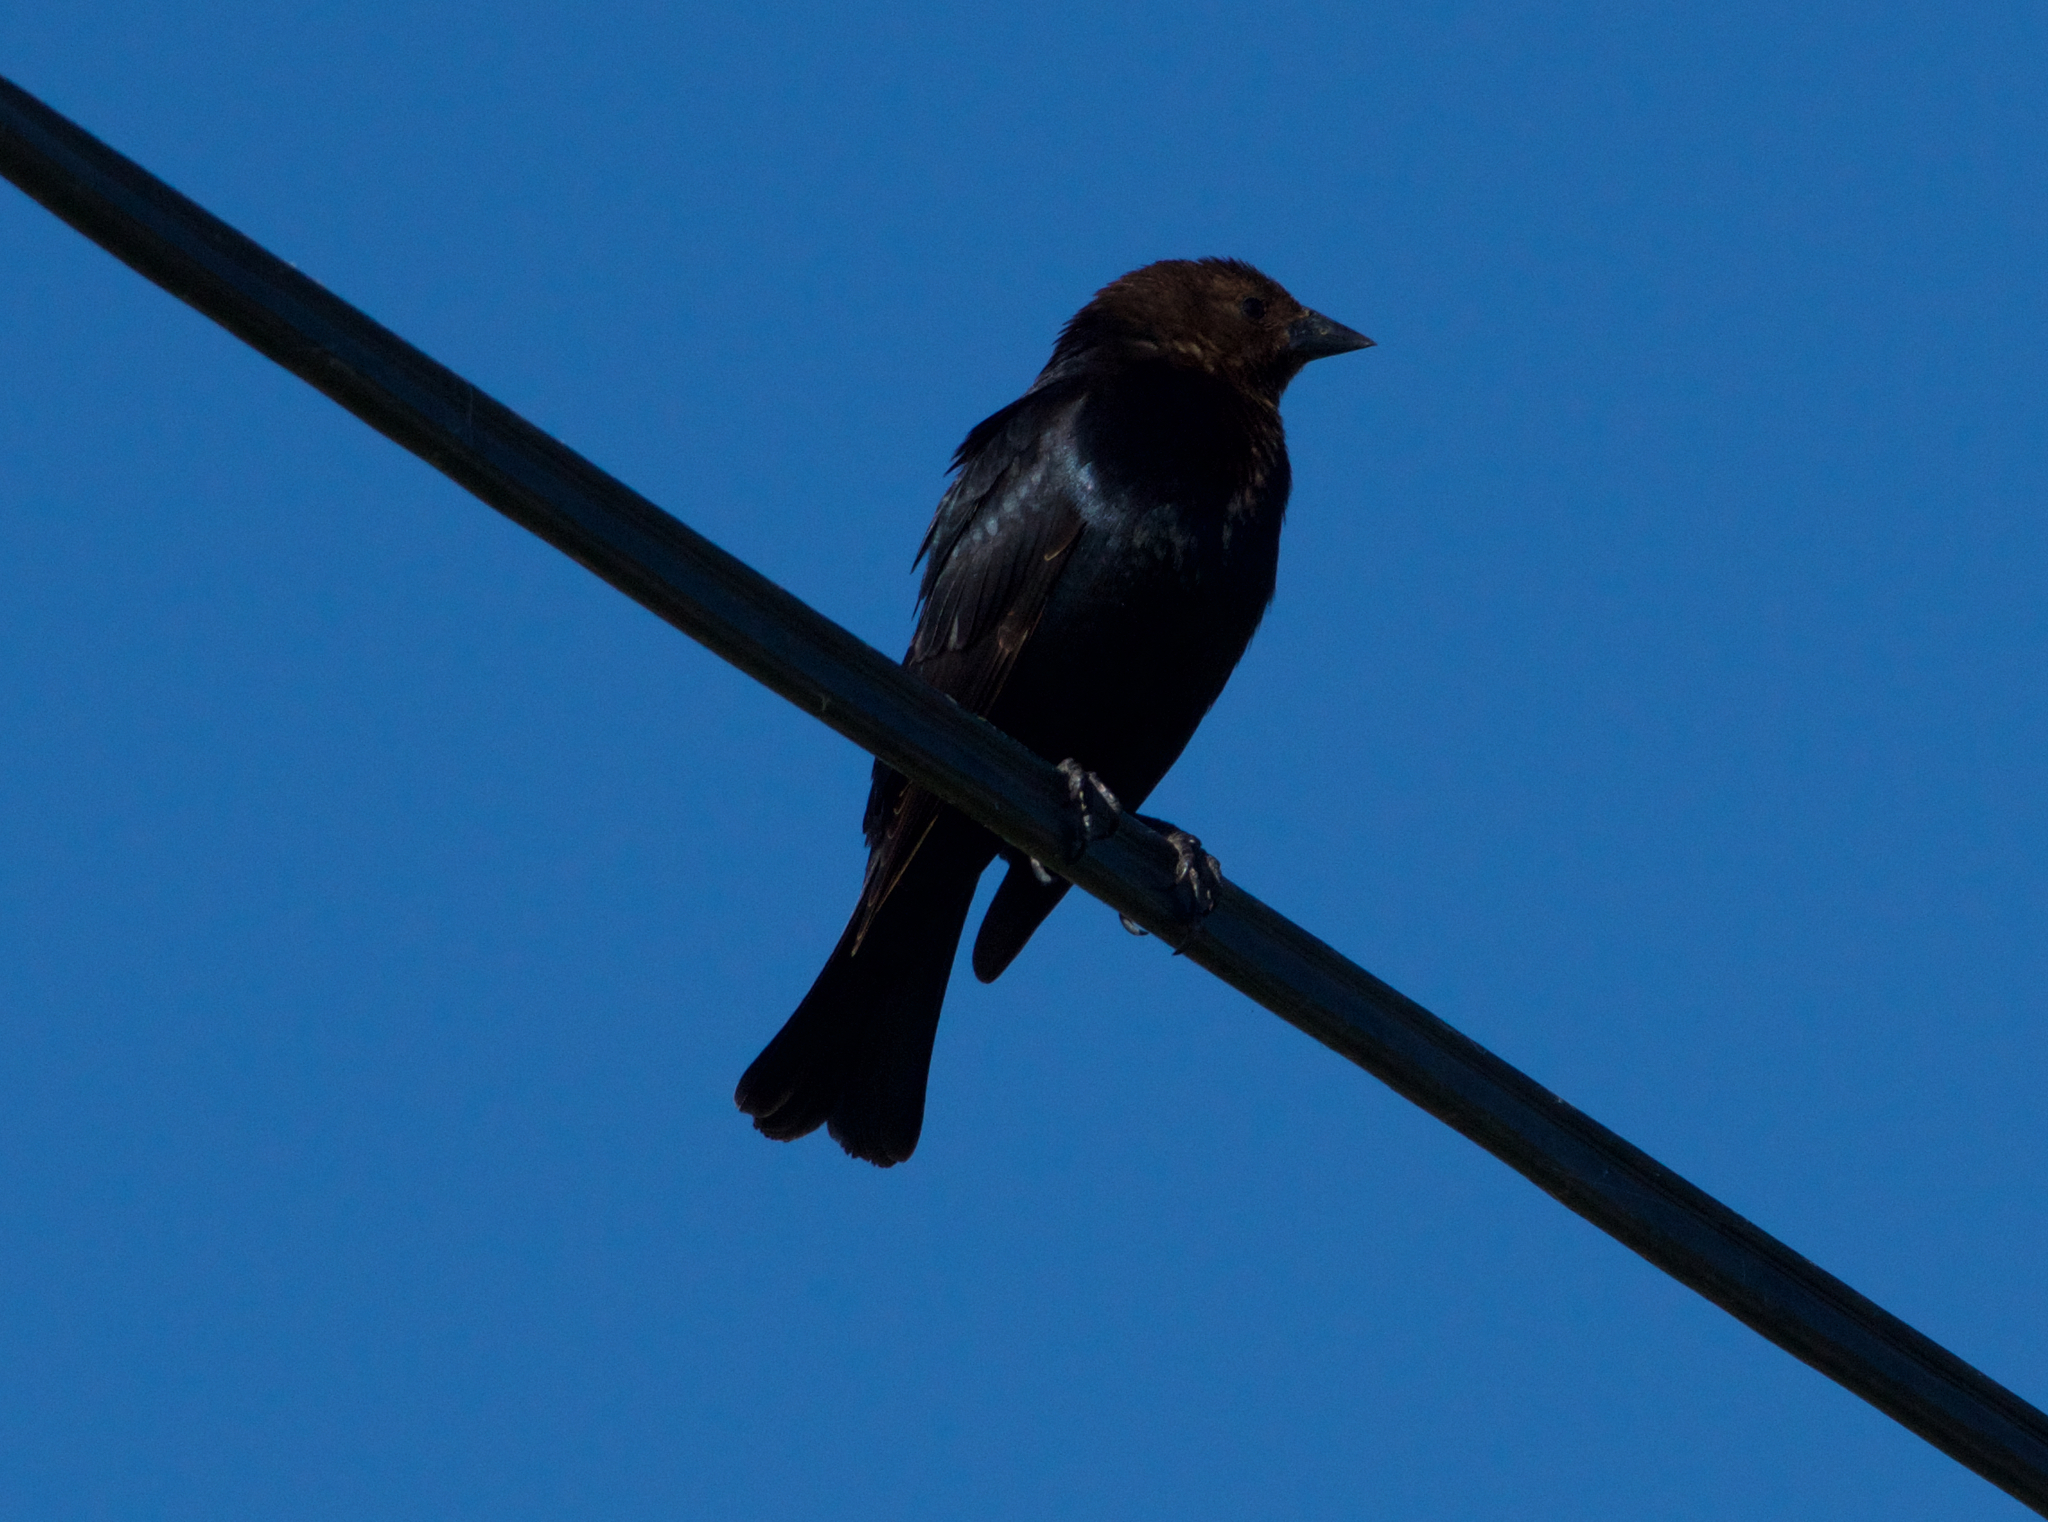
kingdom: Animalia
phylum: Chordata
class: Aves
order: Passeriformes
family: Icteridae
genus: Molothrus
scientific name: Molothrus ater
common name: Brown-headed cowbird
